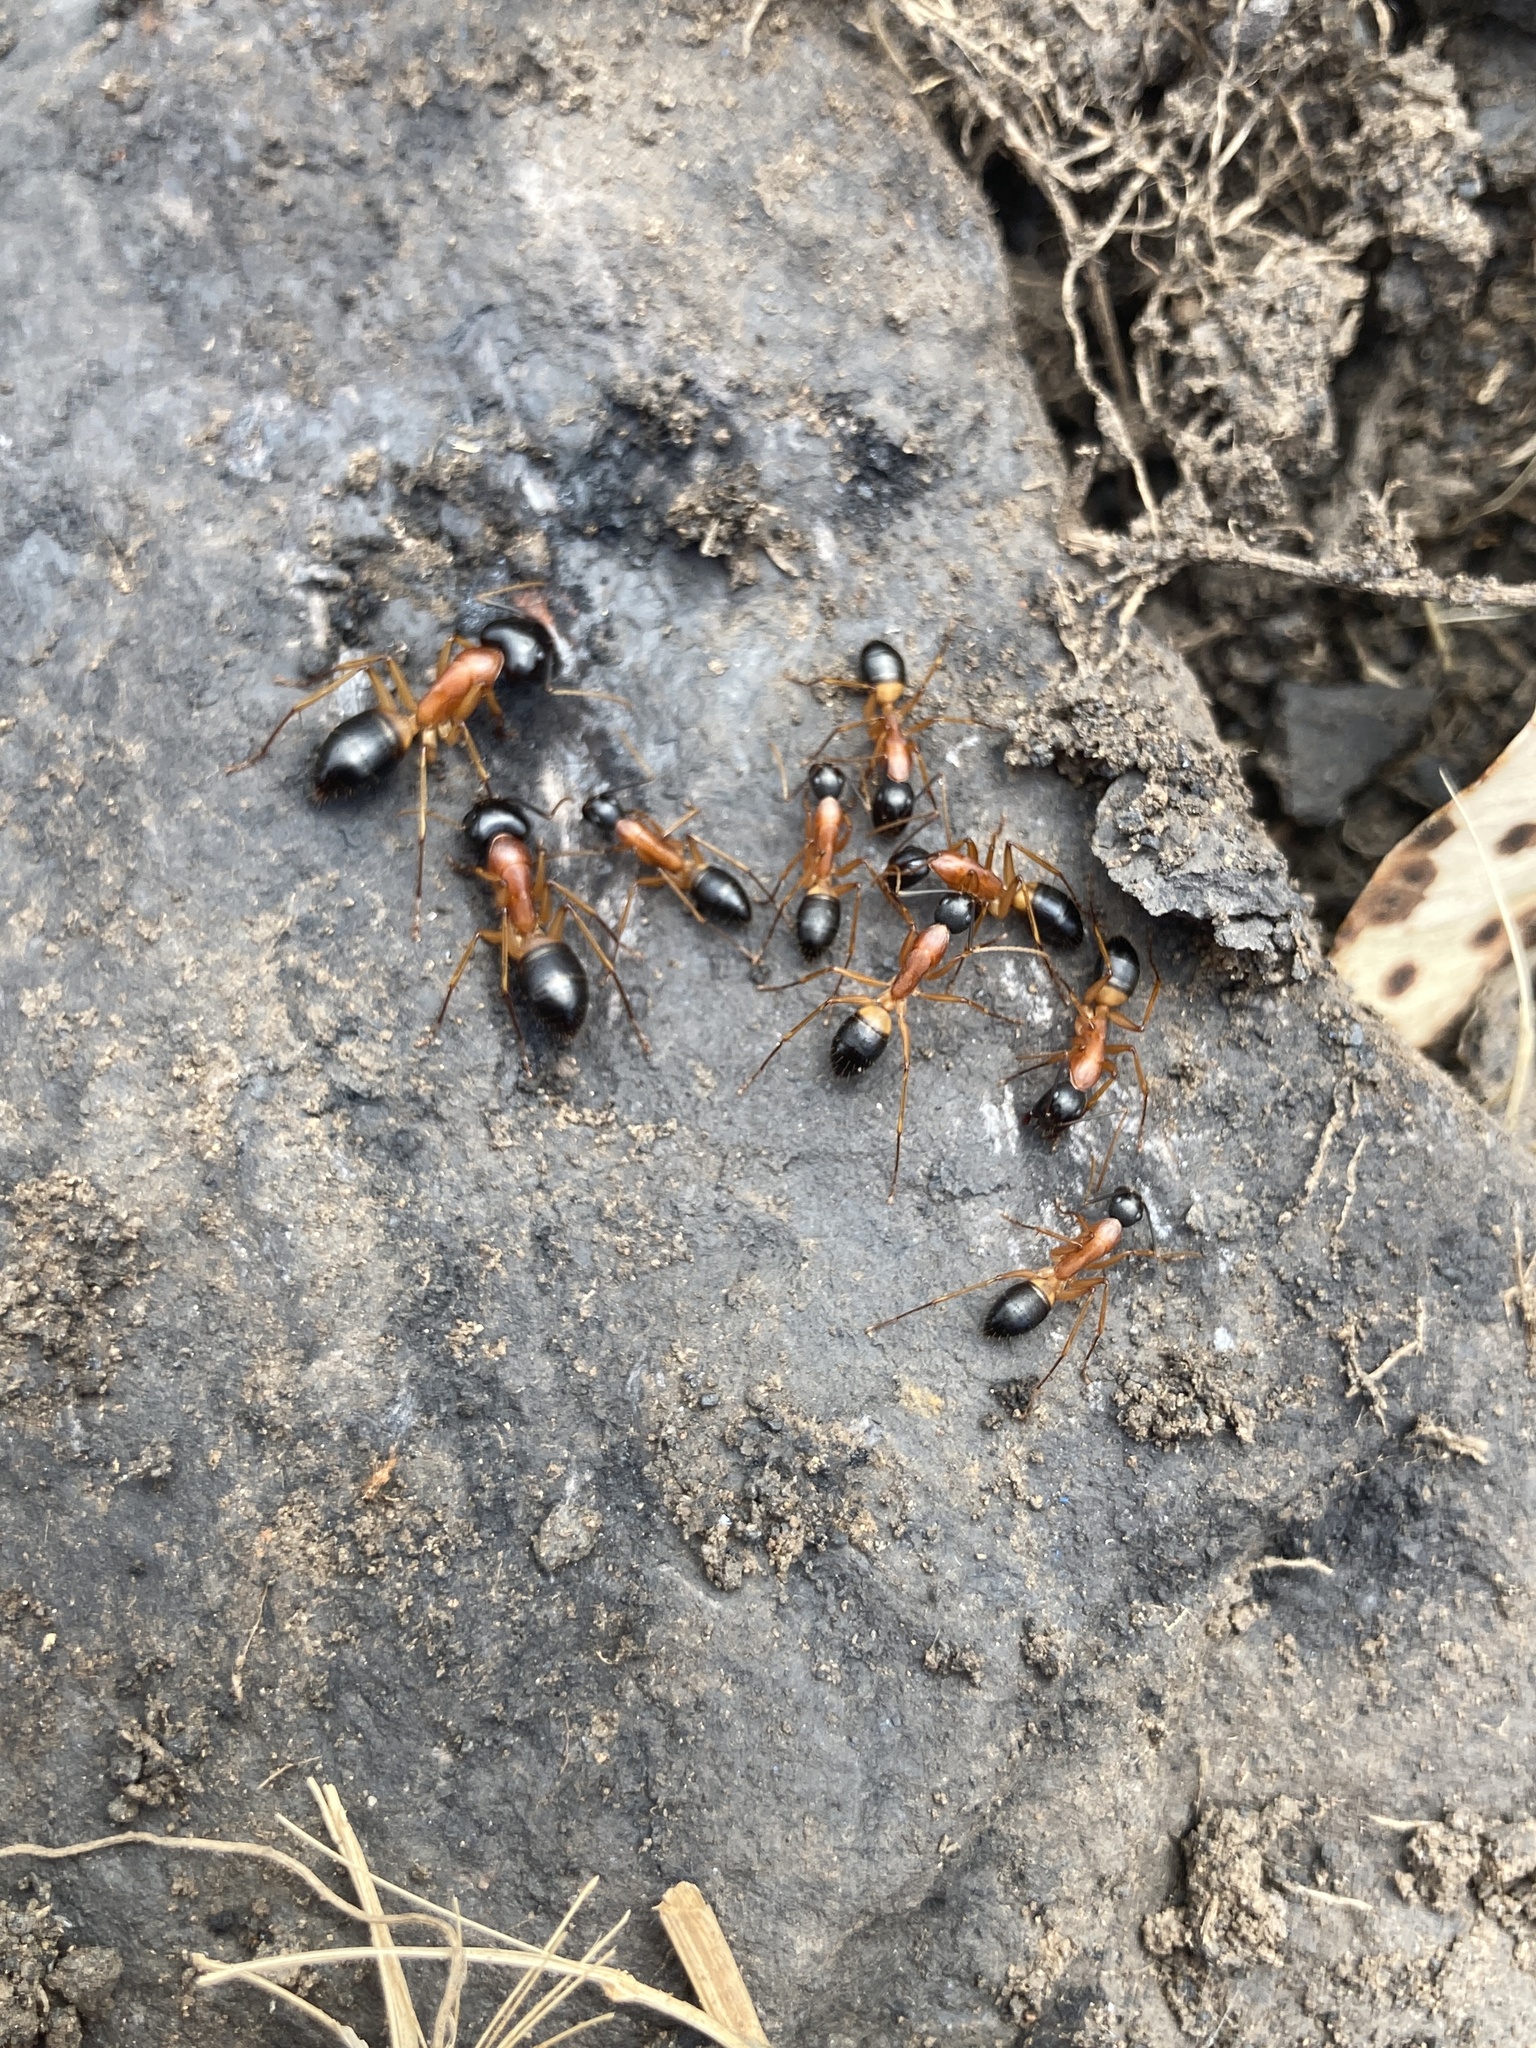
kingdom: Animalia
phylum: Arthropoda
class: Insecta
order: Hymenoptera
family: Formicidae
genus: Camponotus
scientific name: Camponotus consobrinus
